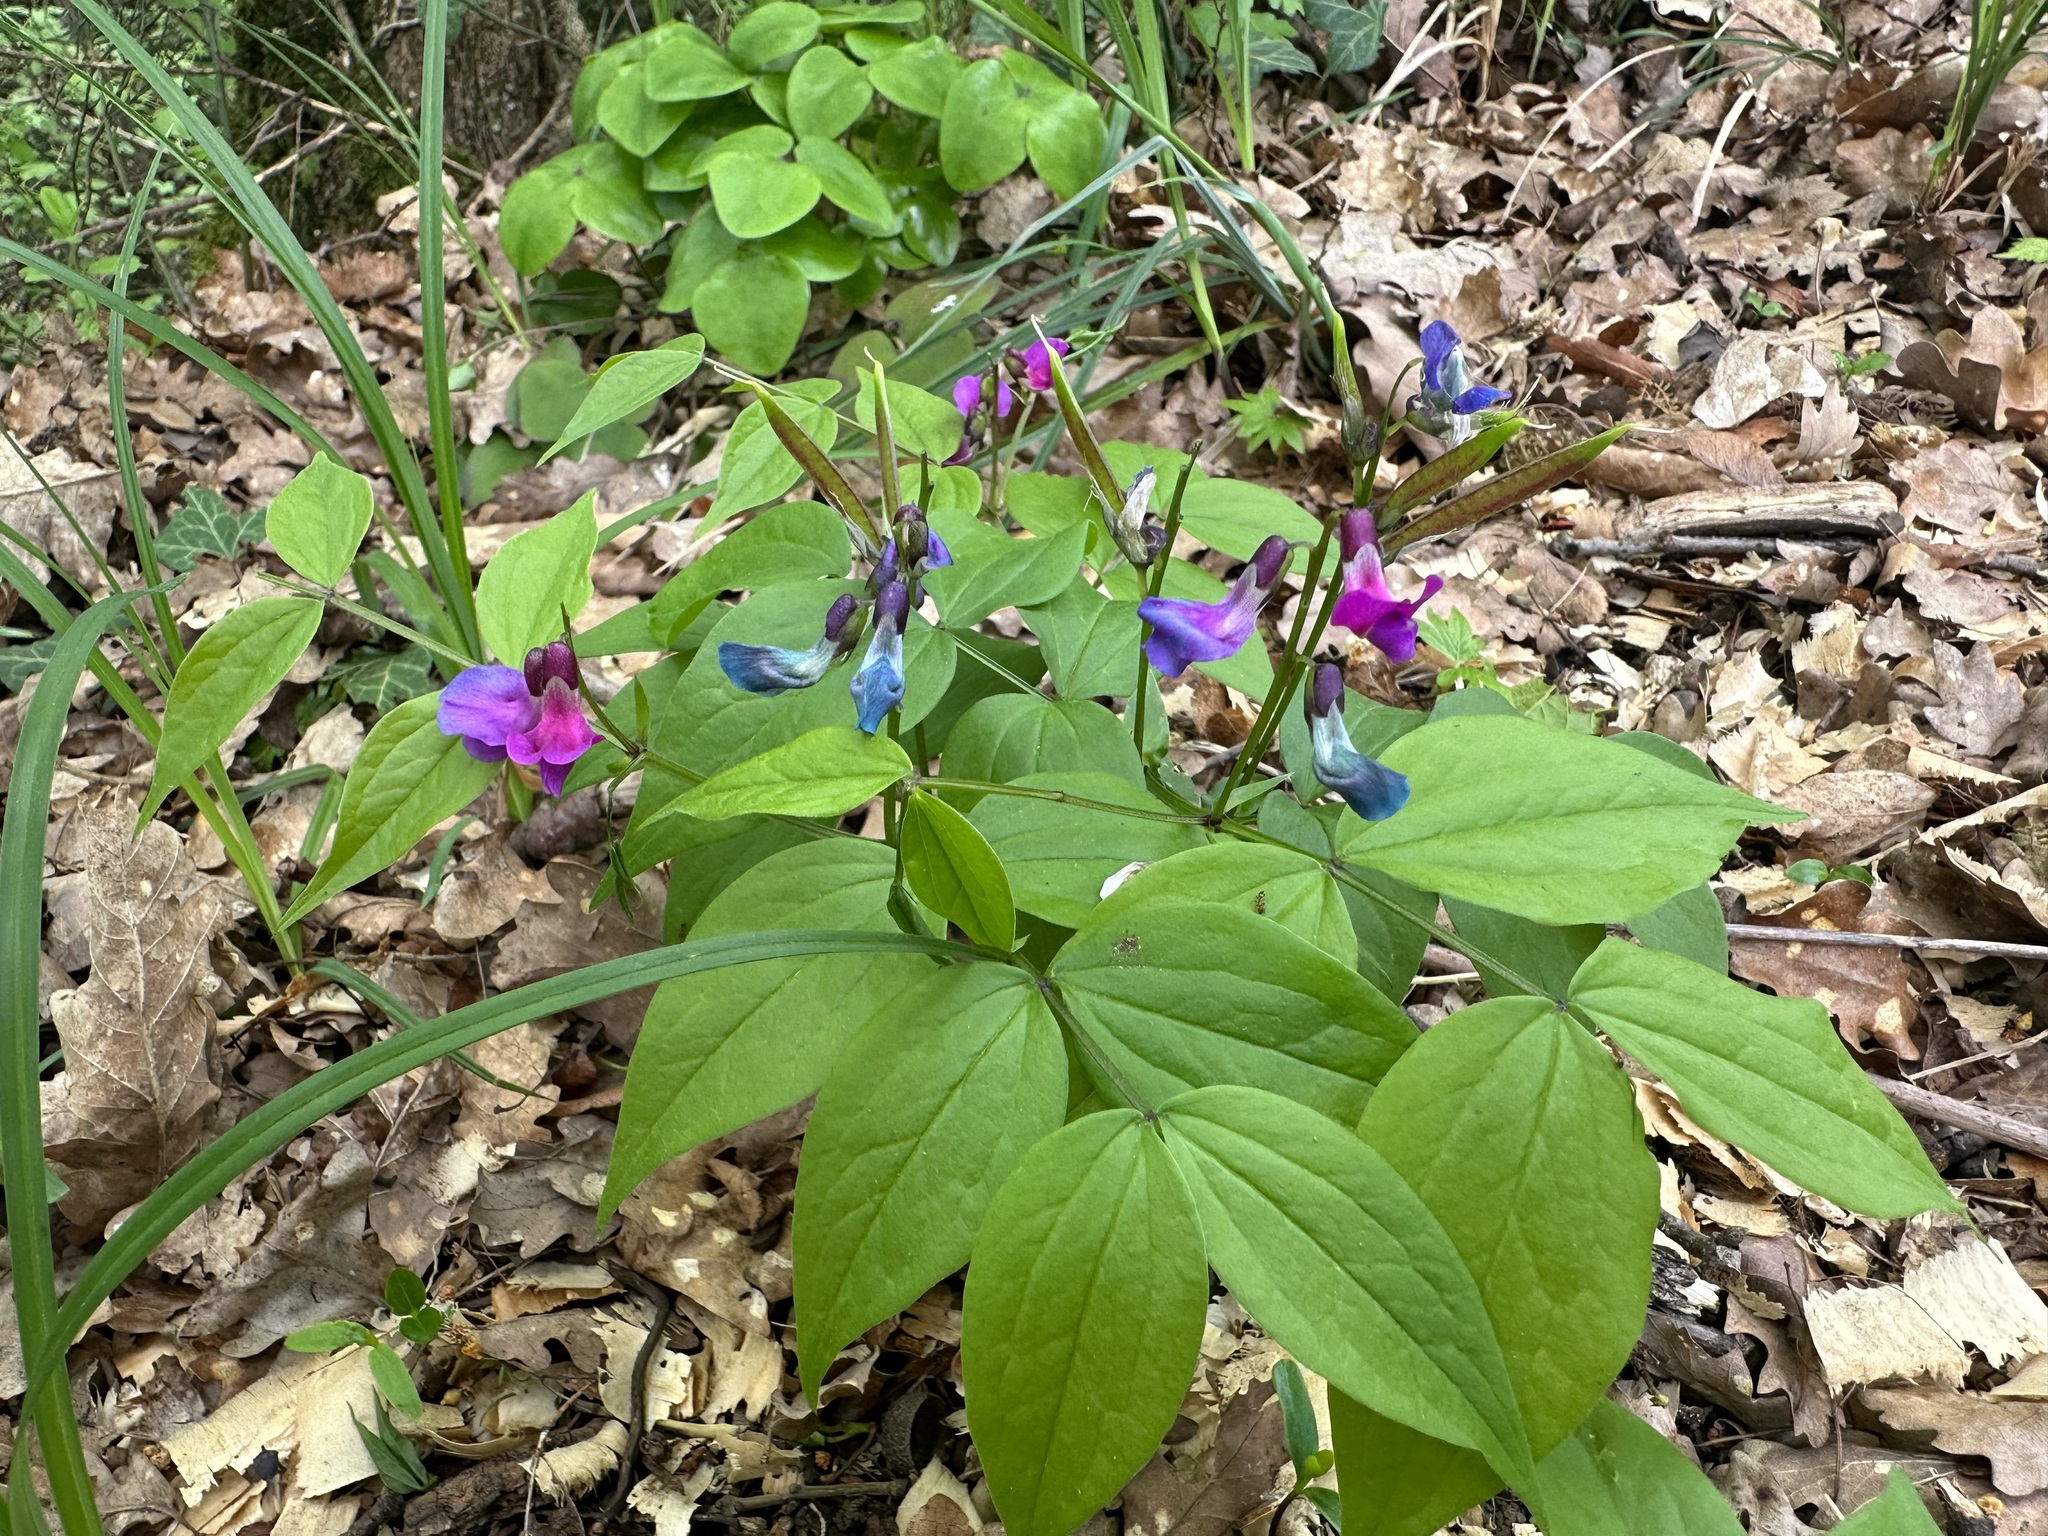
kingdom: Plantae
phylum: Tracheophyta
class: Magnoliopsida
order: Fabales
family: Fabaceae
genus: Lathyrus
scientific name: Lathyrus vernus
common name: Spring pea
